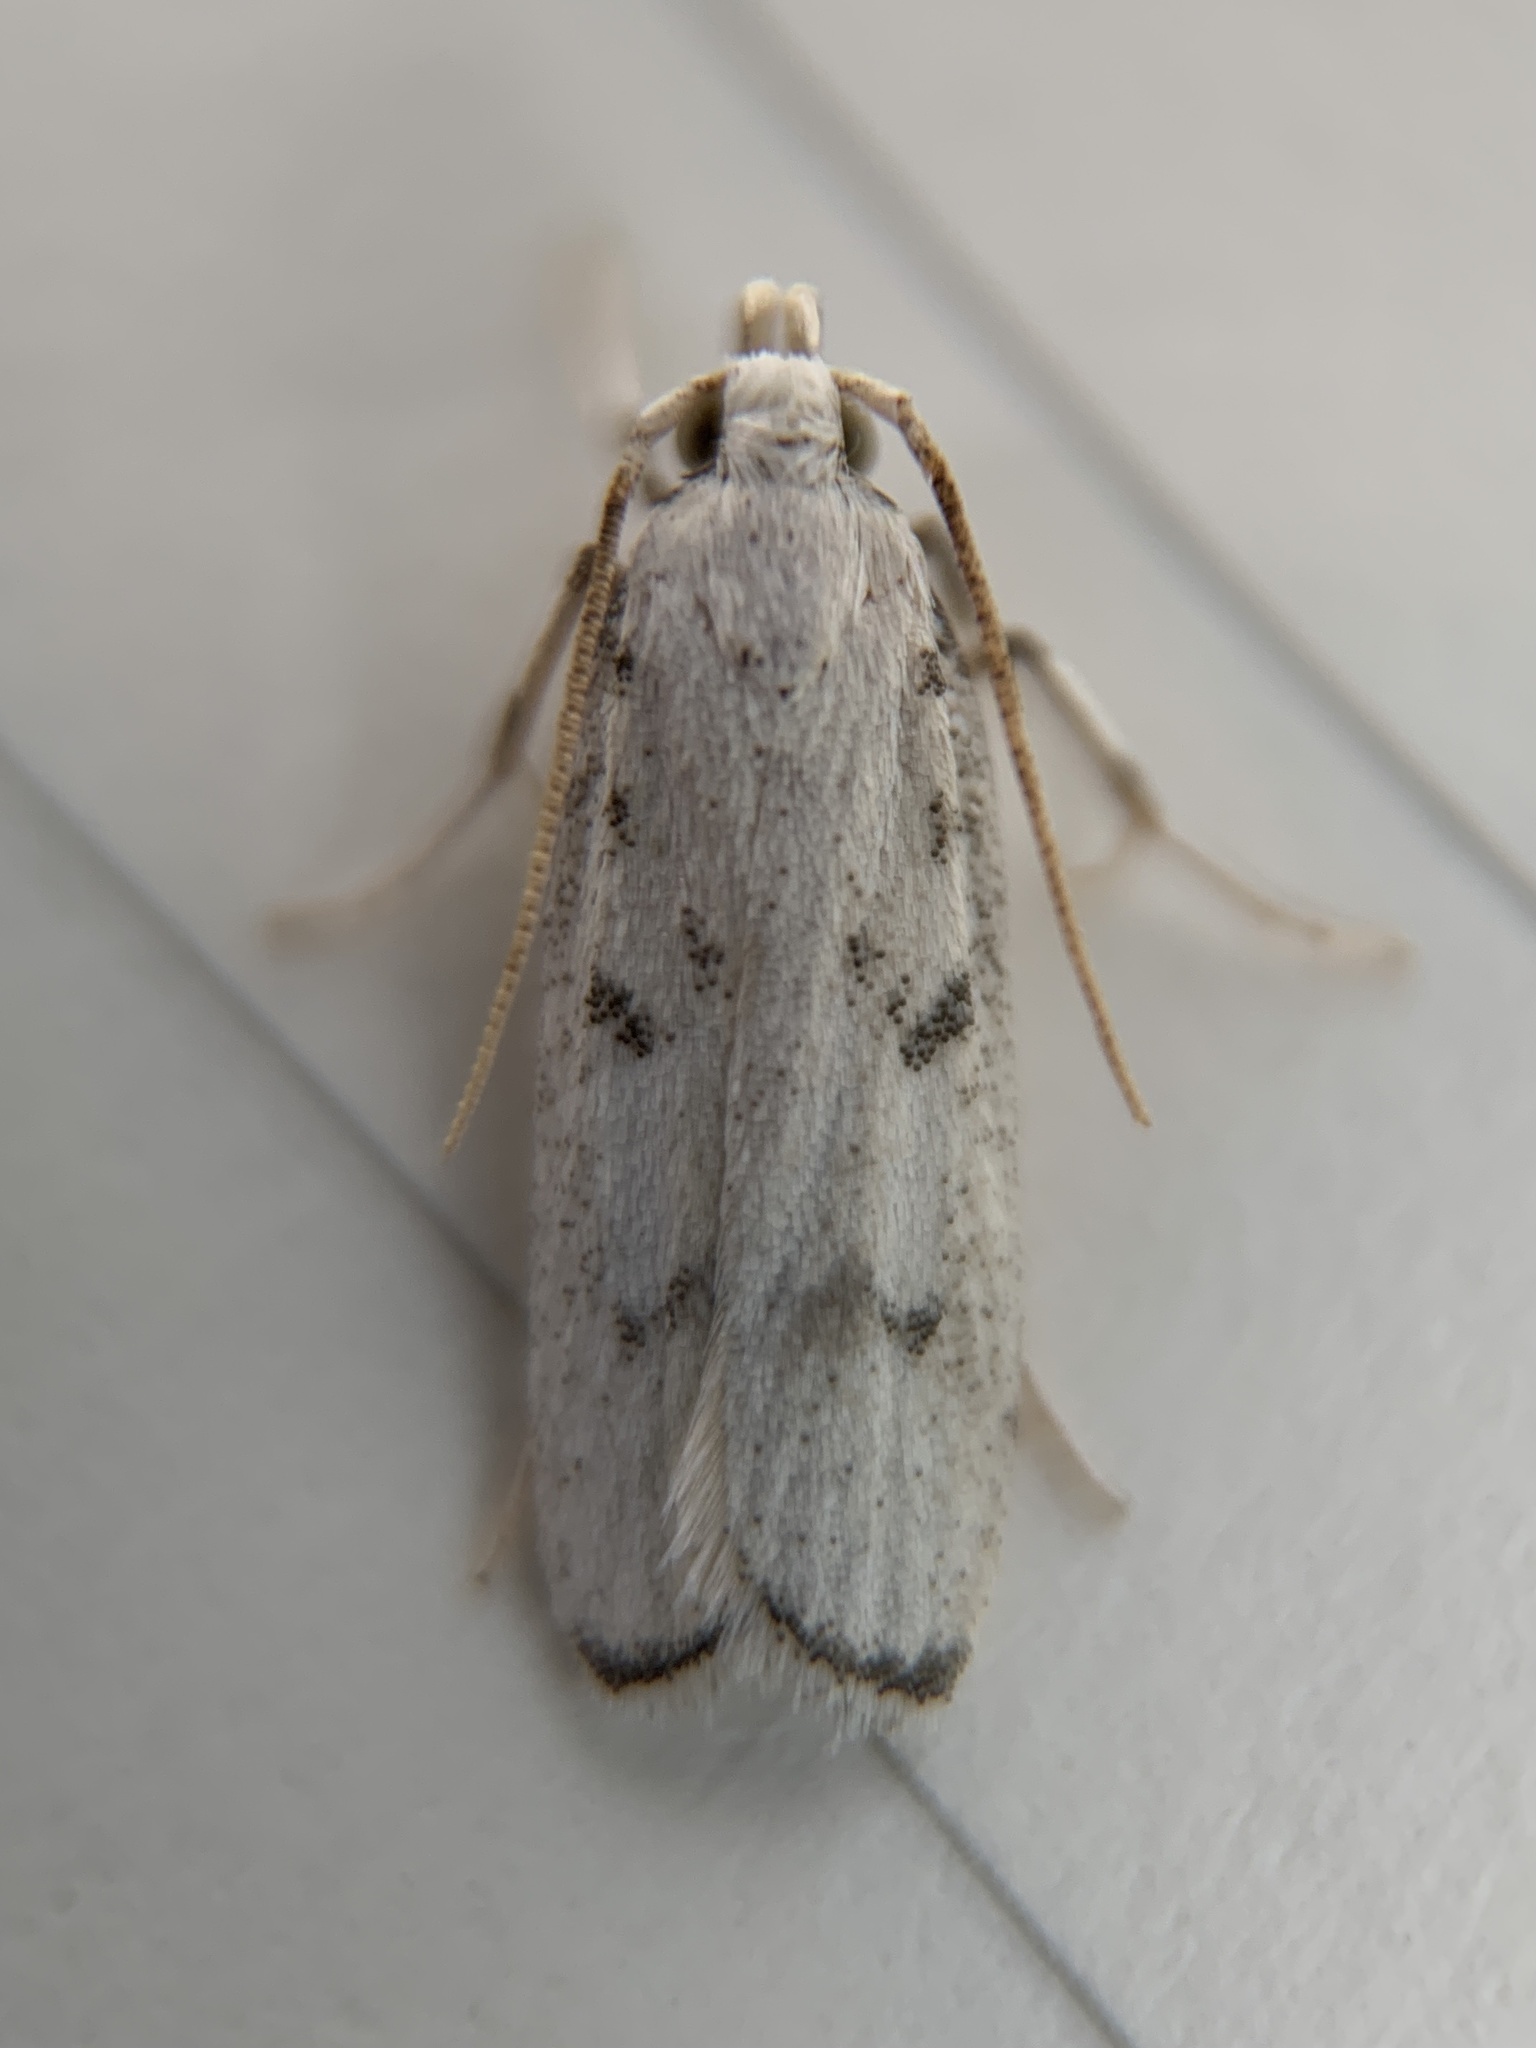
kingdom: Animalia
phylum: Arthropoda
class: Insecta
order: Lepidoptera
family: Autostichidae
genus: Glyphidocera
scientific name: Glyphidocera lactiflosella
